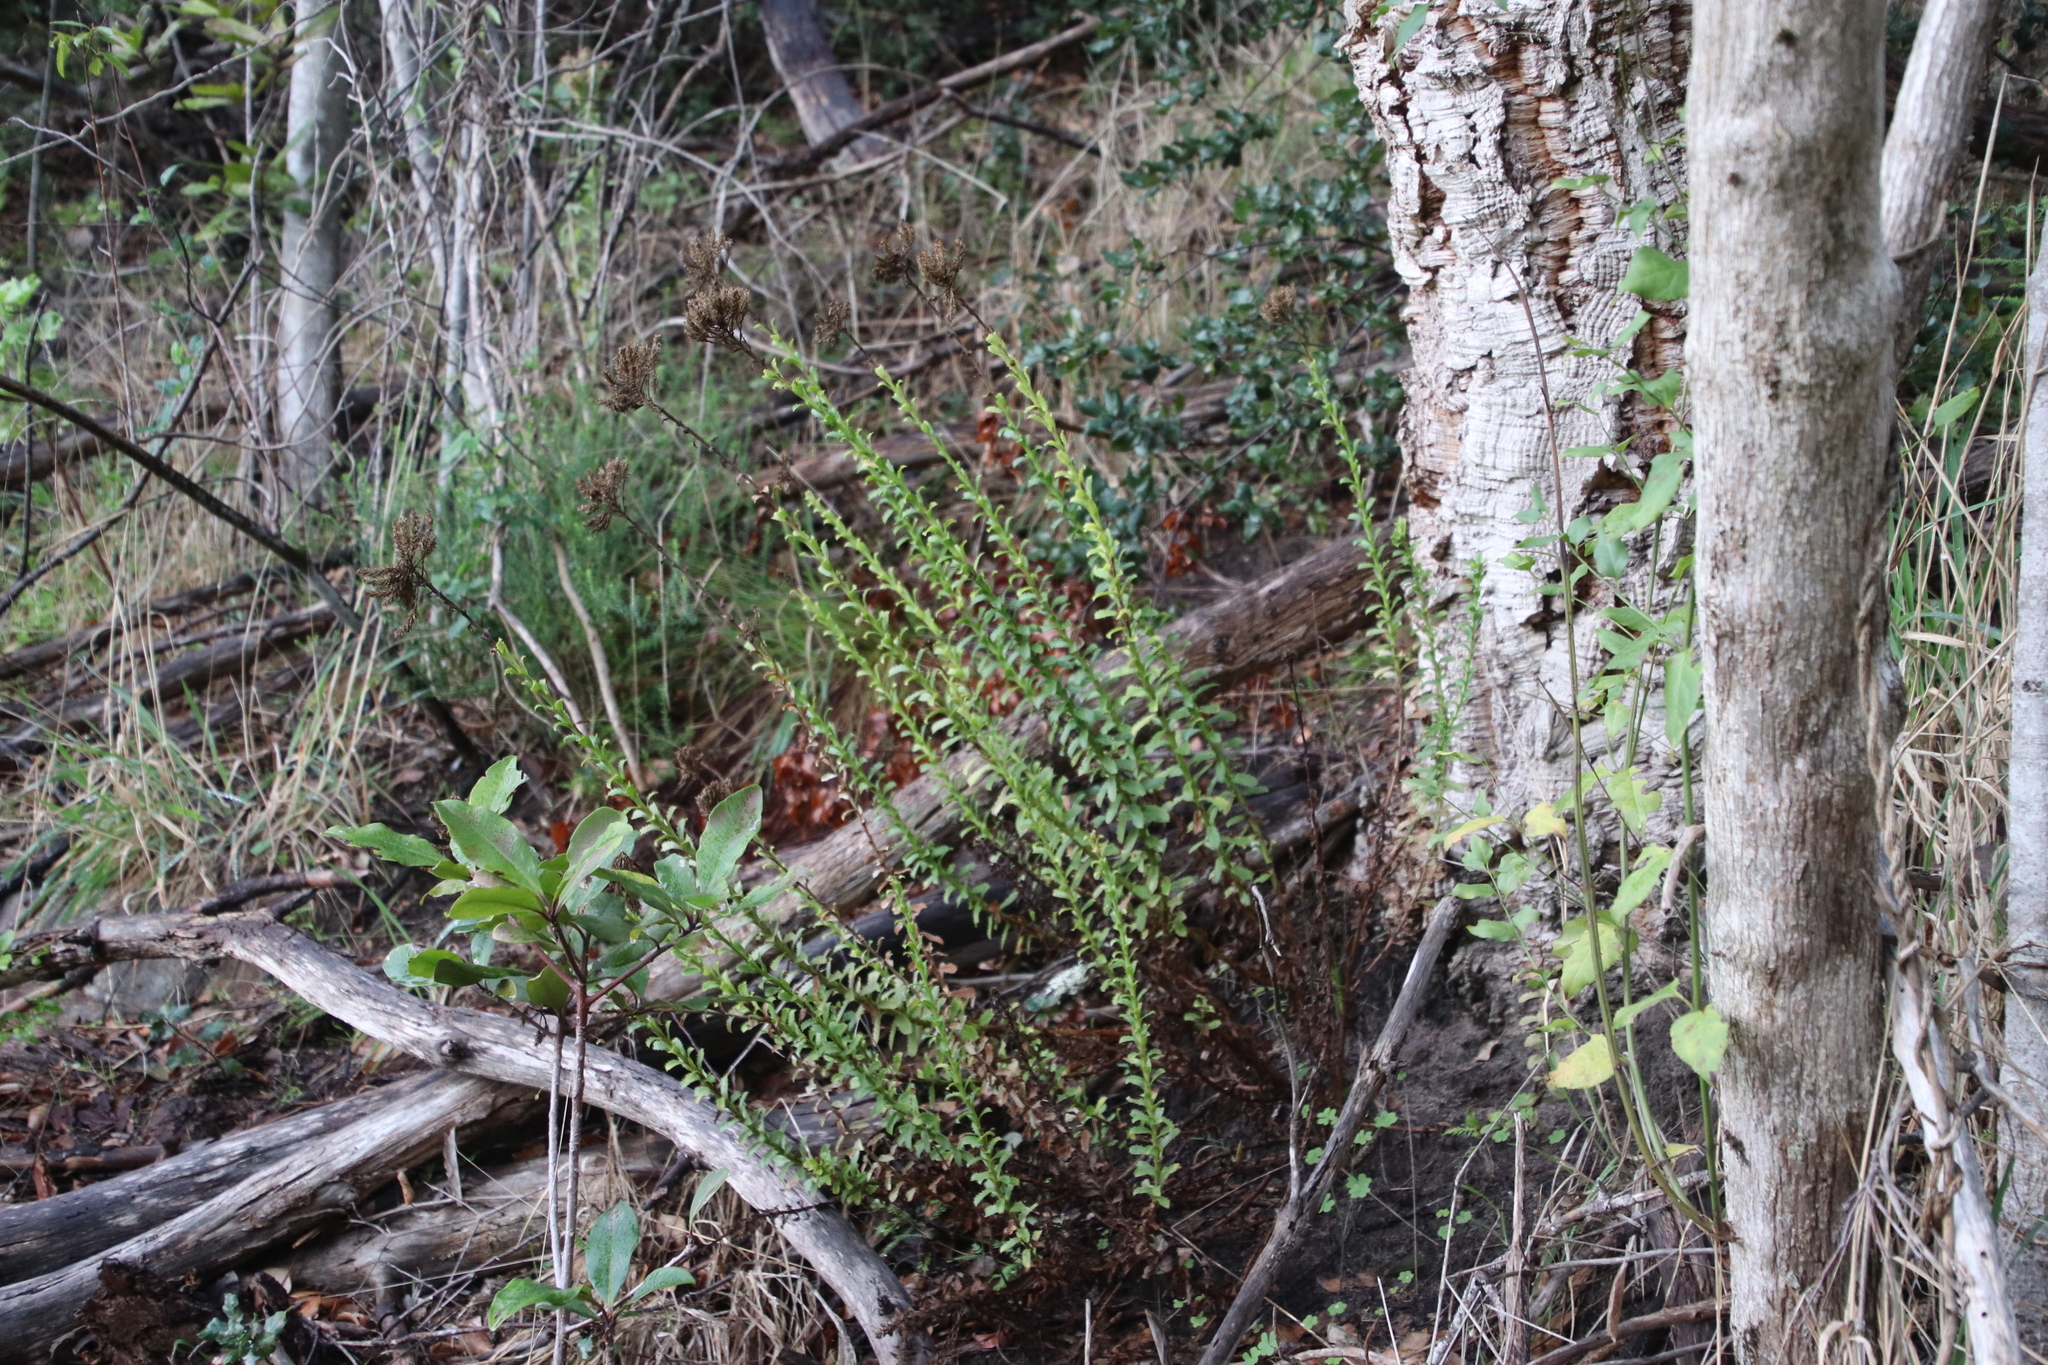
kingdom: Plantae
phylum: Tracheophyta
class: Magnoliopsida
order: Lamiales
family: Scrophulariaceae
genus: Pseudoselago
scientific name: Pseudoselago serrata
